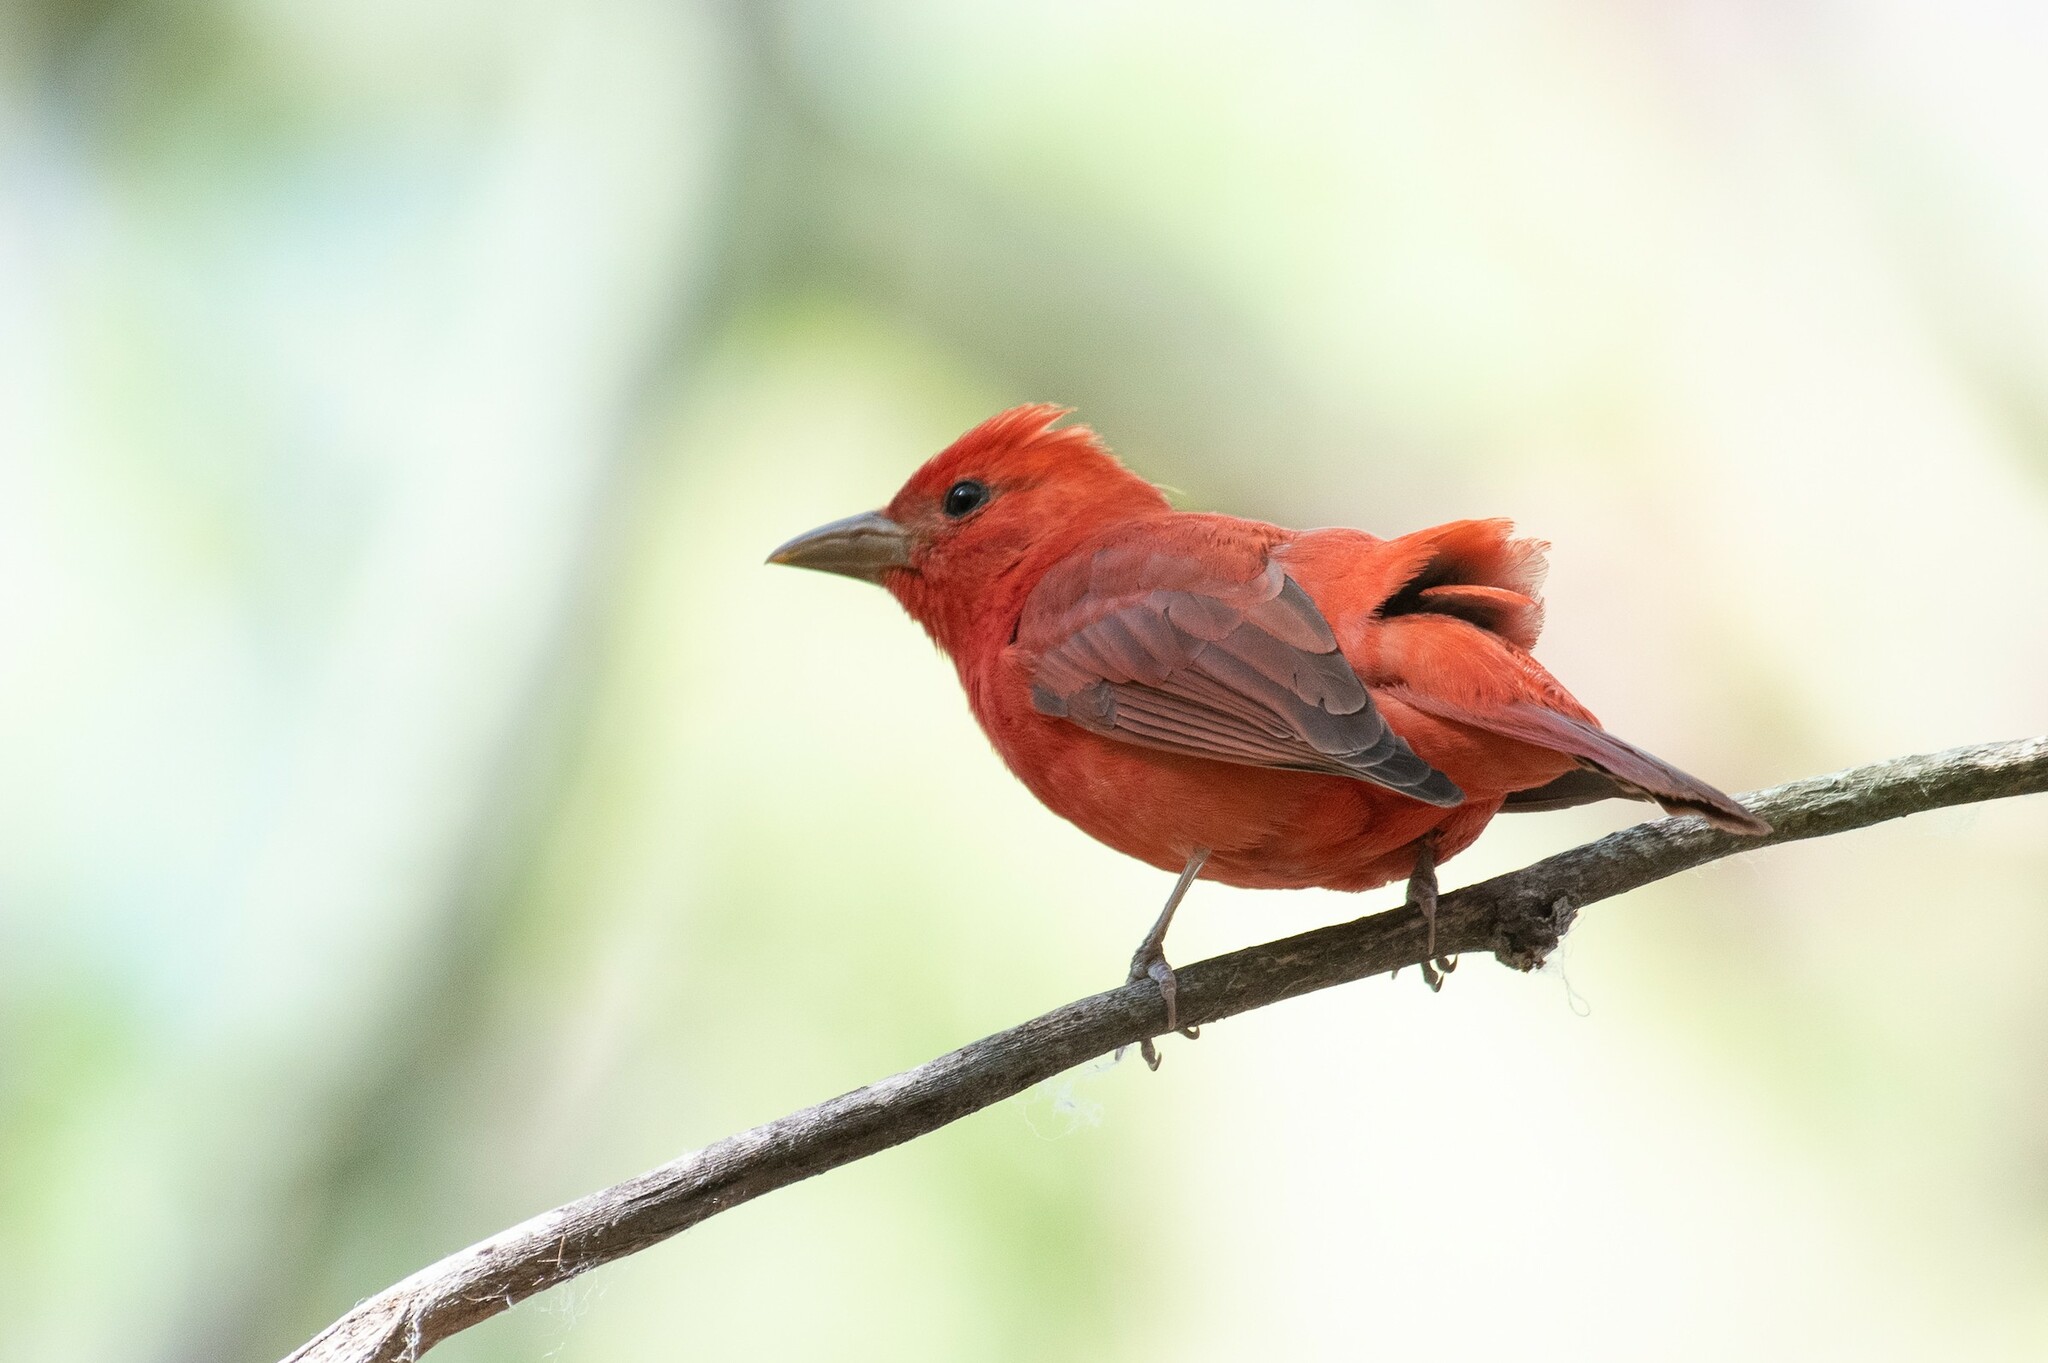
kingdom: Animalia
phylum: Chordata
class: Aves
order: Passeriformes
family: Cardinalidae
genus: Piranga
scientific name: Piranga rubra
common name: Summer tanager
